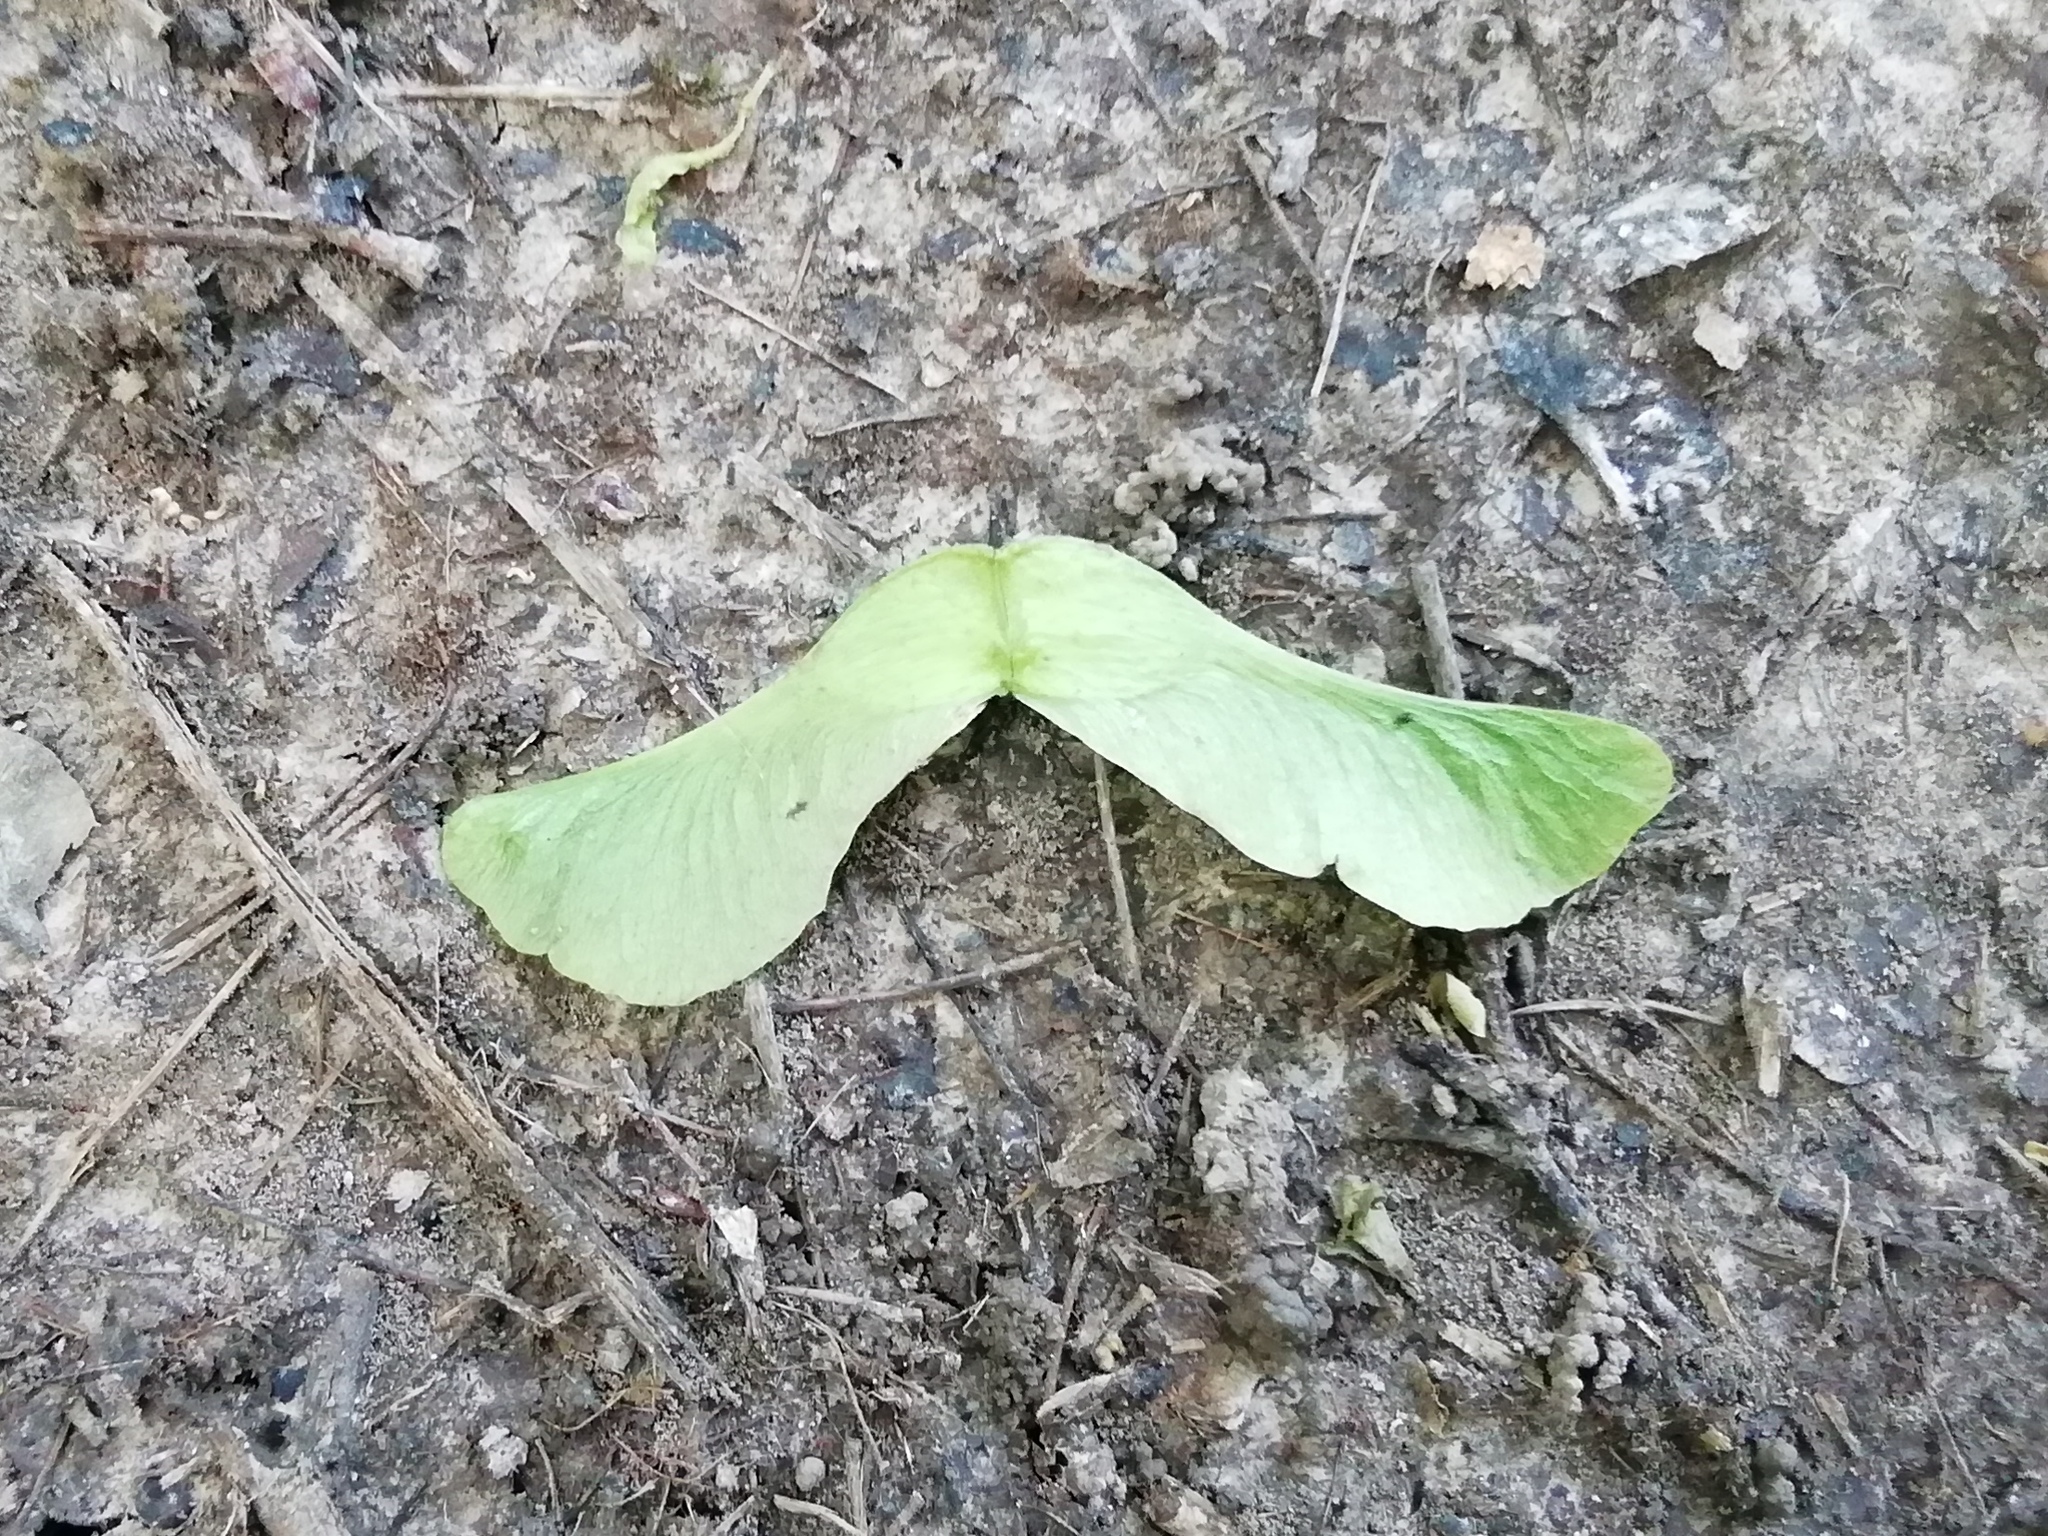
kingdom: Plantae
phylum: Tracheophyta
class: Magnoliopsida
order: Sapindales
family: Sapindaceae
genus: Acer
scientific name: Acer platanoides
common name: Norway maple
